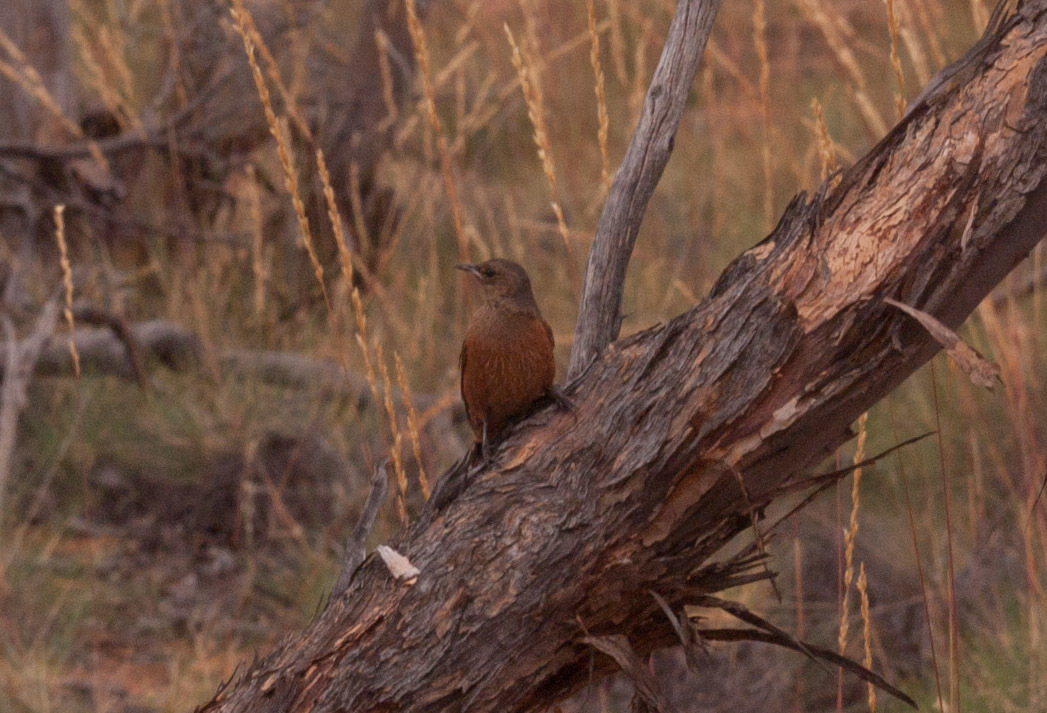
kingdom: Animalia
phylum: Chordata
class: Aves
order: Passeriformes
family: Climacteridae
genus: Climacteris
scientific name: Climacteris rufus
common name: Rufous treecreeper
